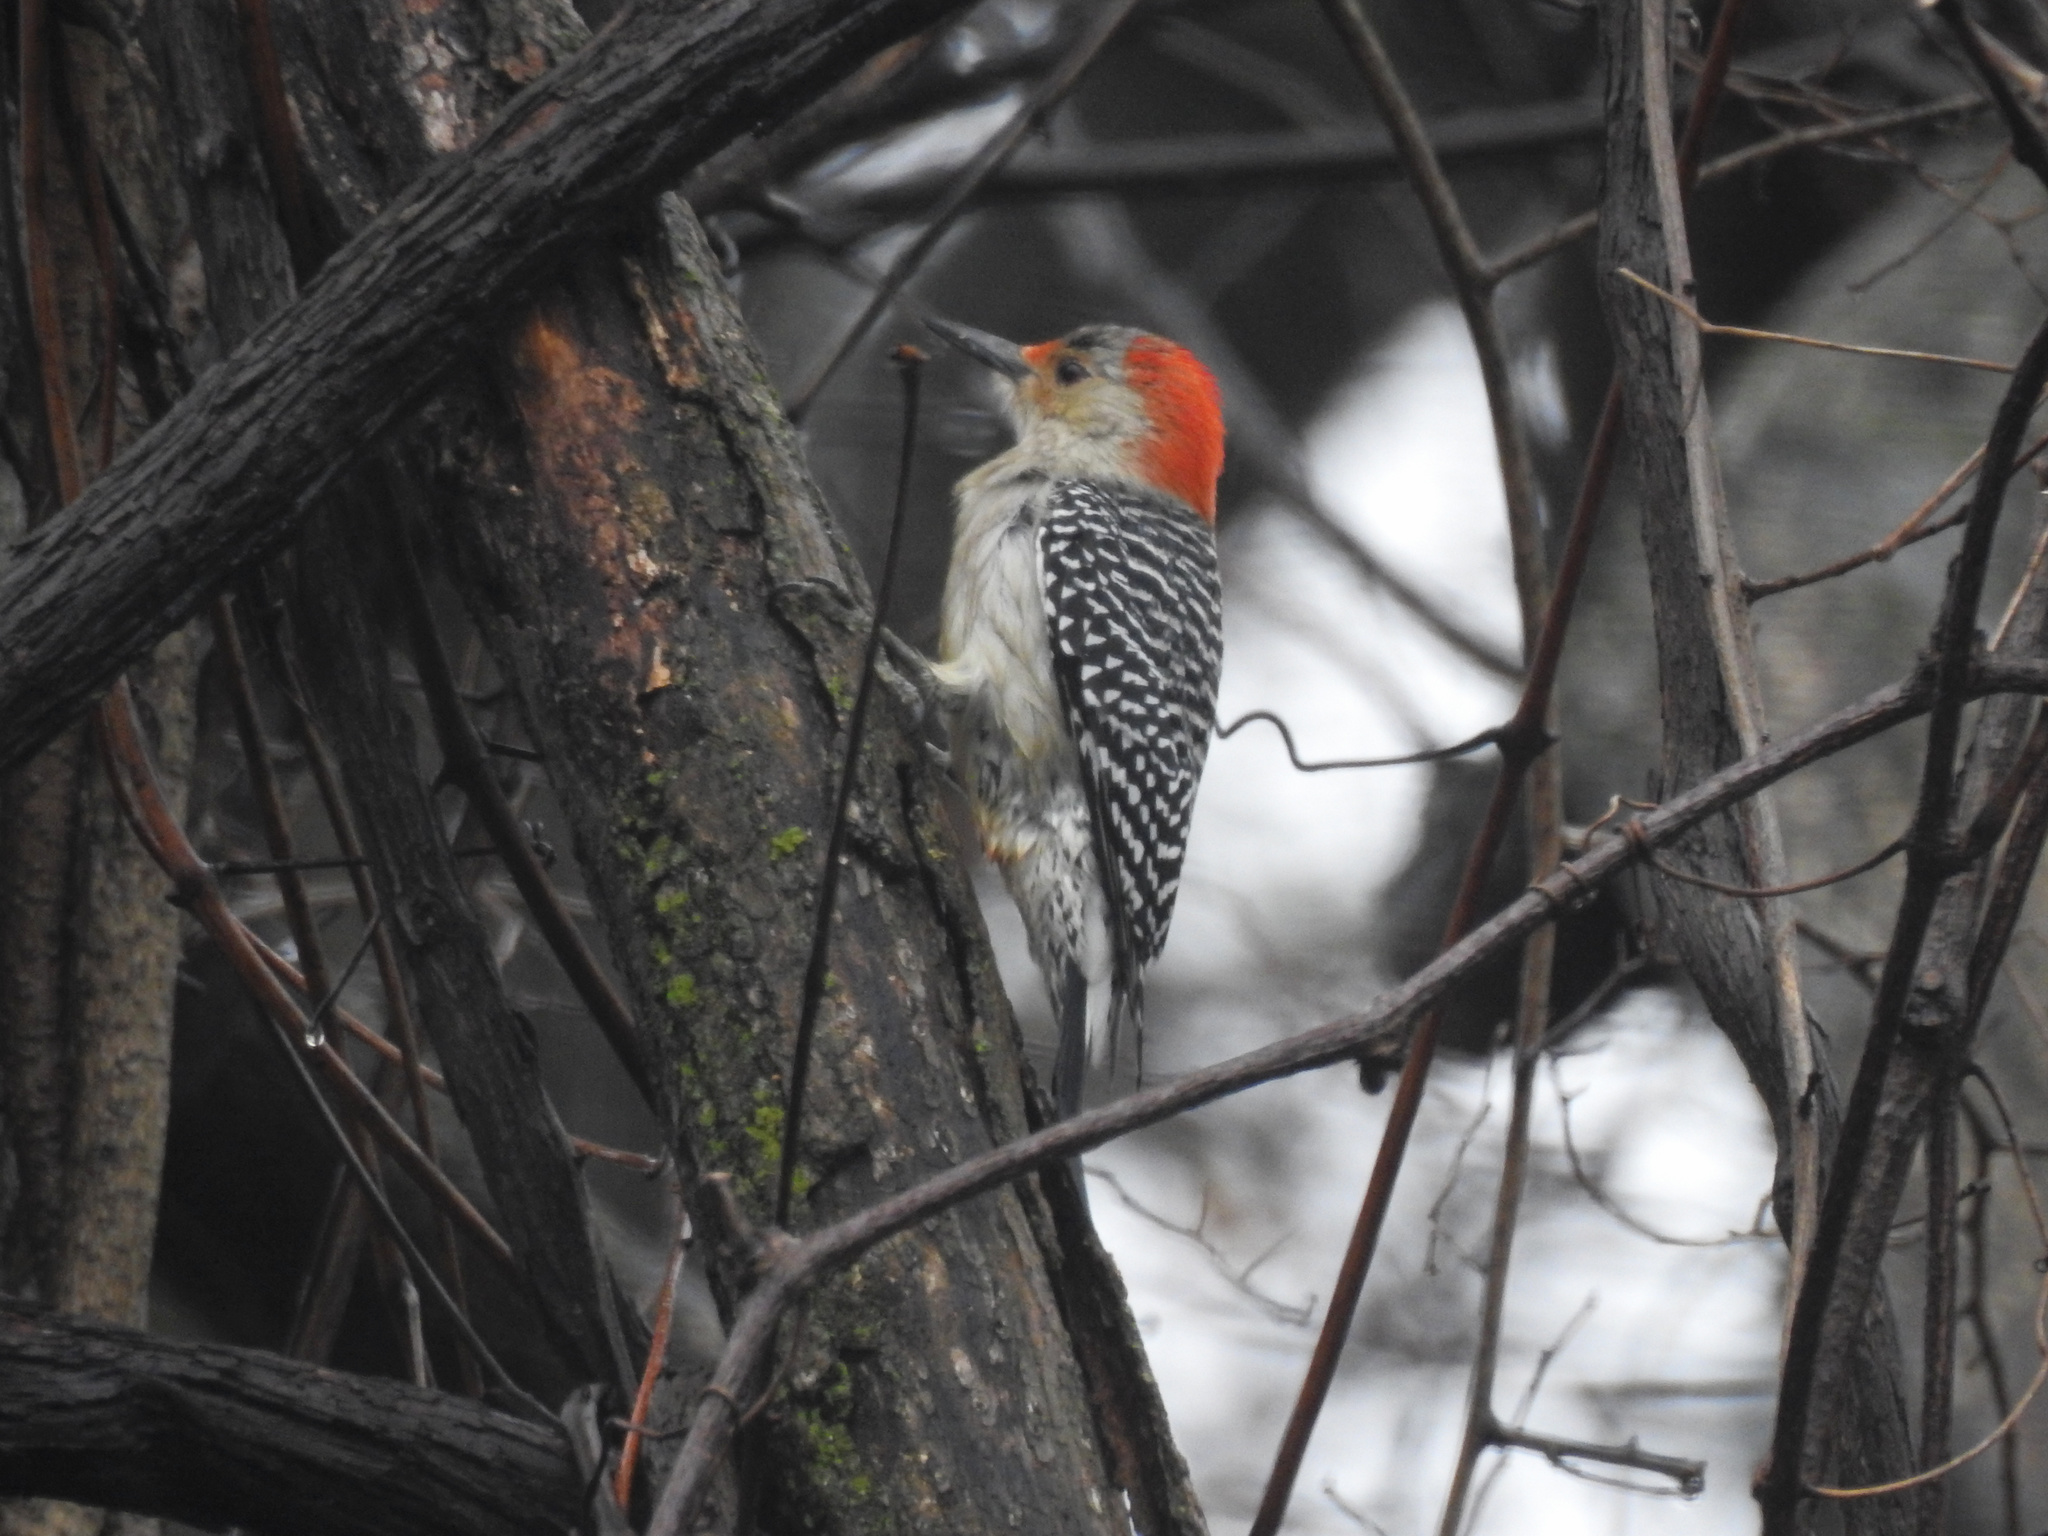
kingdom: Animalia
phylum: Chordata
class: Aves
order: Piciformes
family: Picidae
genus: Melanerpes
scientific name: Melanerpes carolinus
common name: Red-bellied woodpecker
